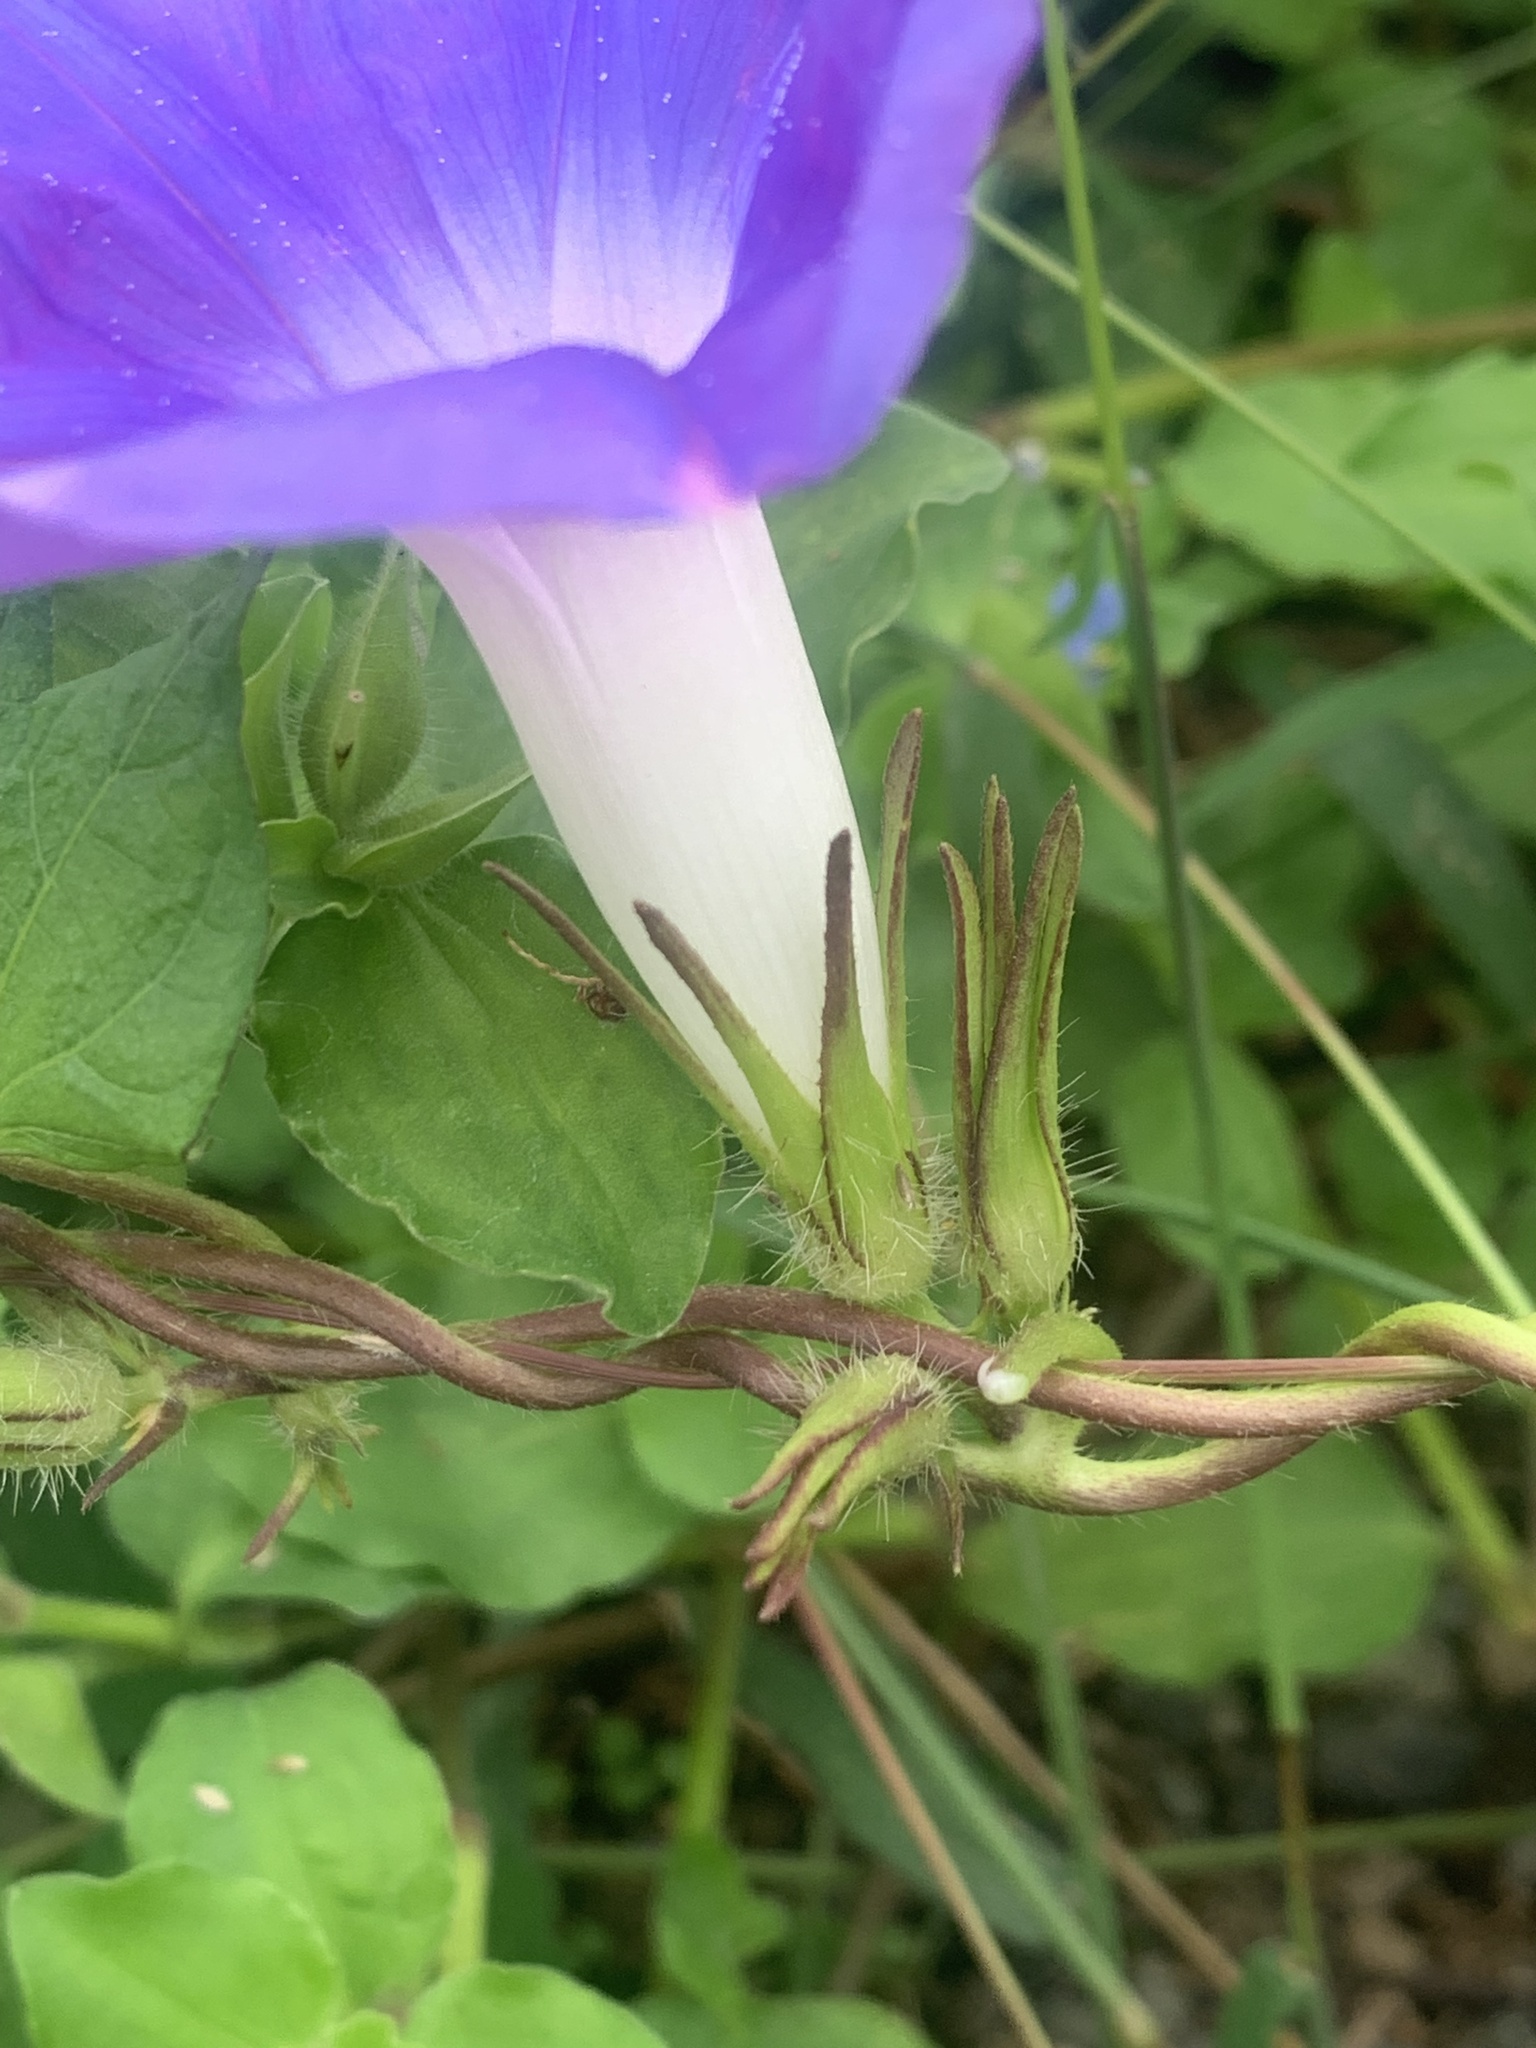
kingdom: Plantae
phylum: Tracheophyta
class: Magnoliopsida
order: Solanales
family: Convolvulaceae
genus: Ipomoea
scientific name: Ipomoea nil
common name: Japanese morning-glory
